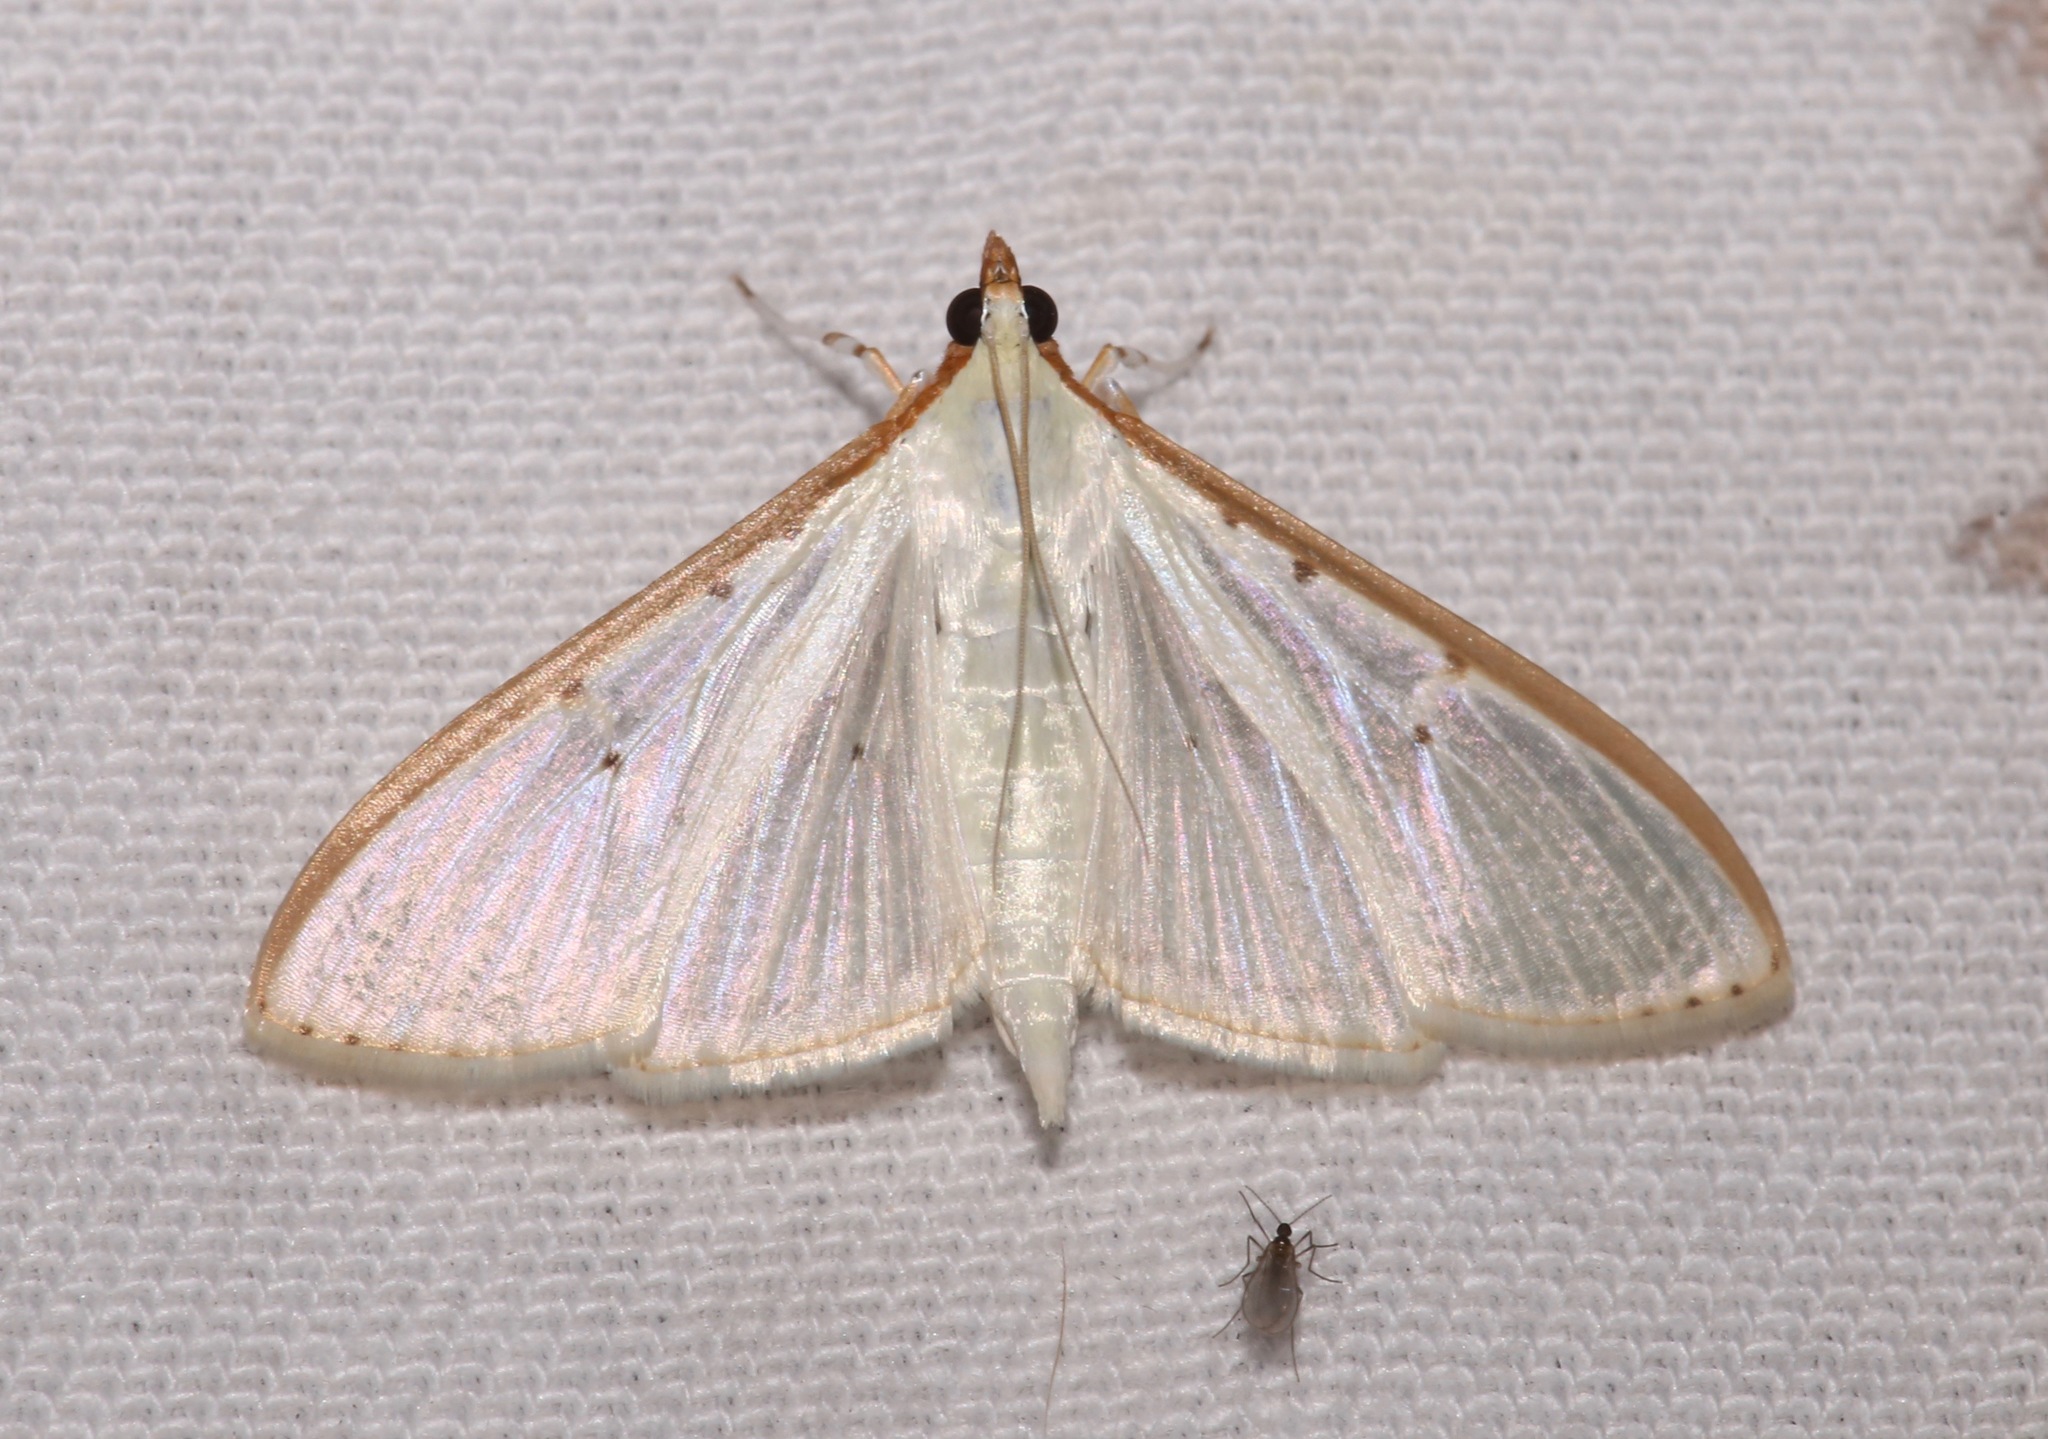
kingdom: Animalia
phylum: Arthropoda
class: Insecta
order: Lepidoptera
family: Crambidae
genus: Palpita
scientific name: Palpita quadristigmalis
